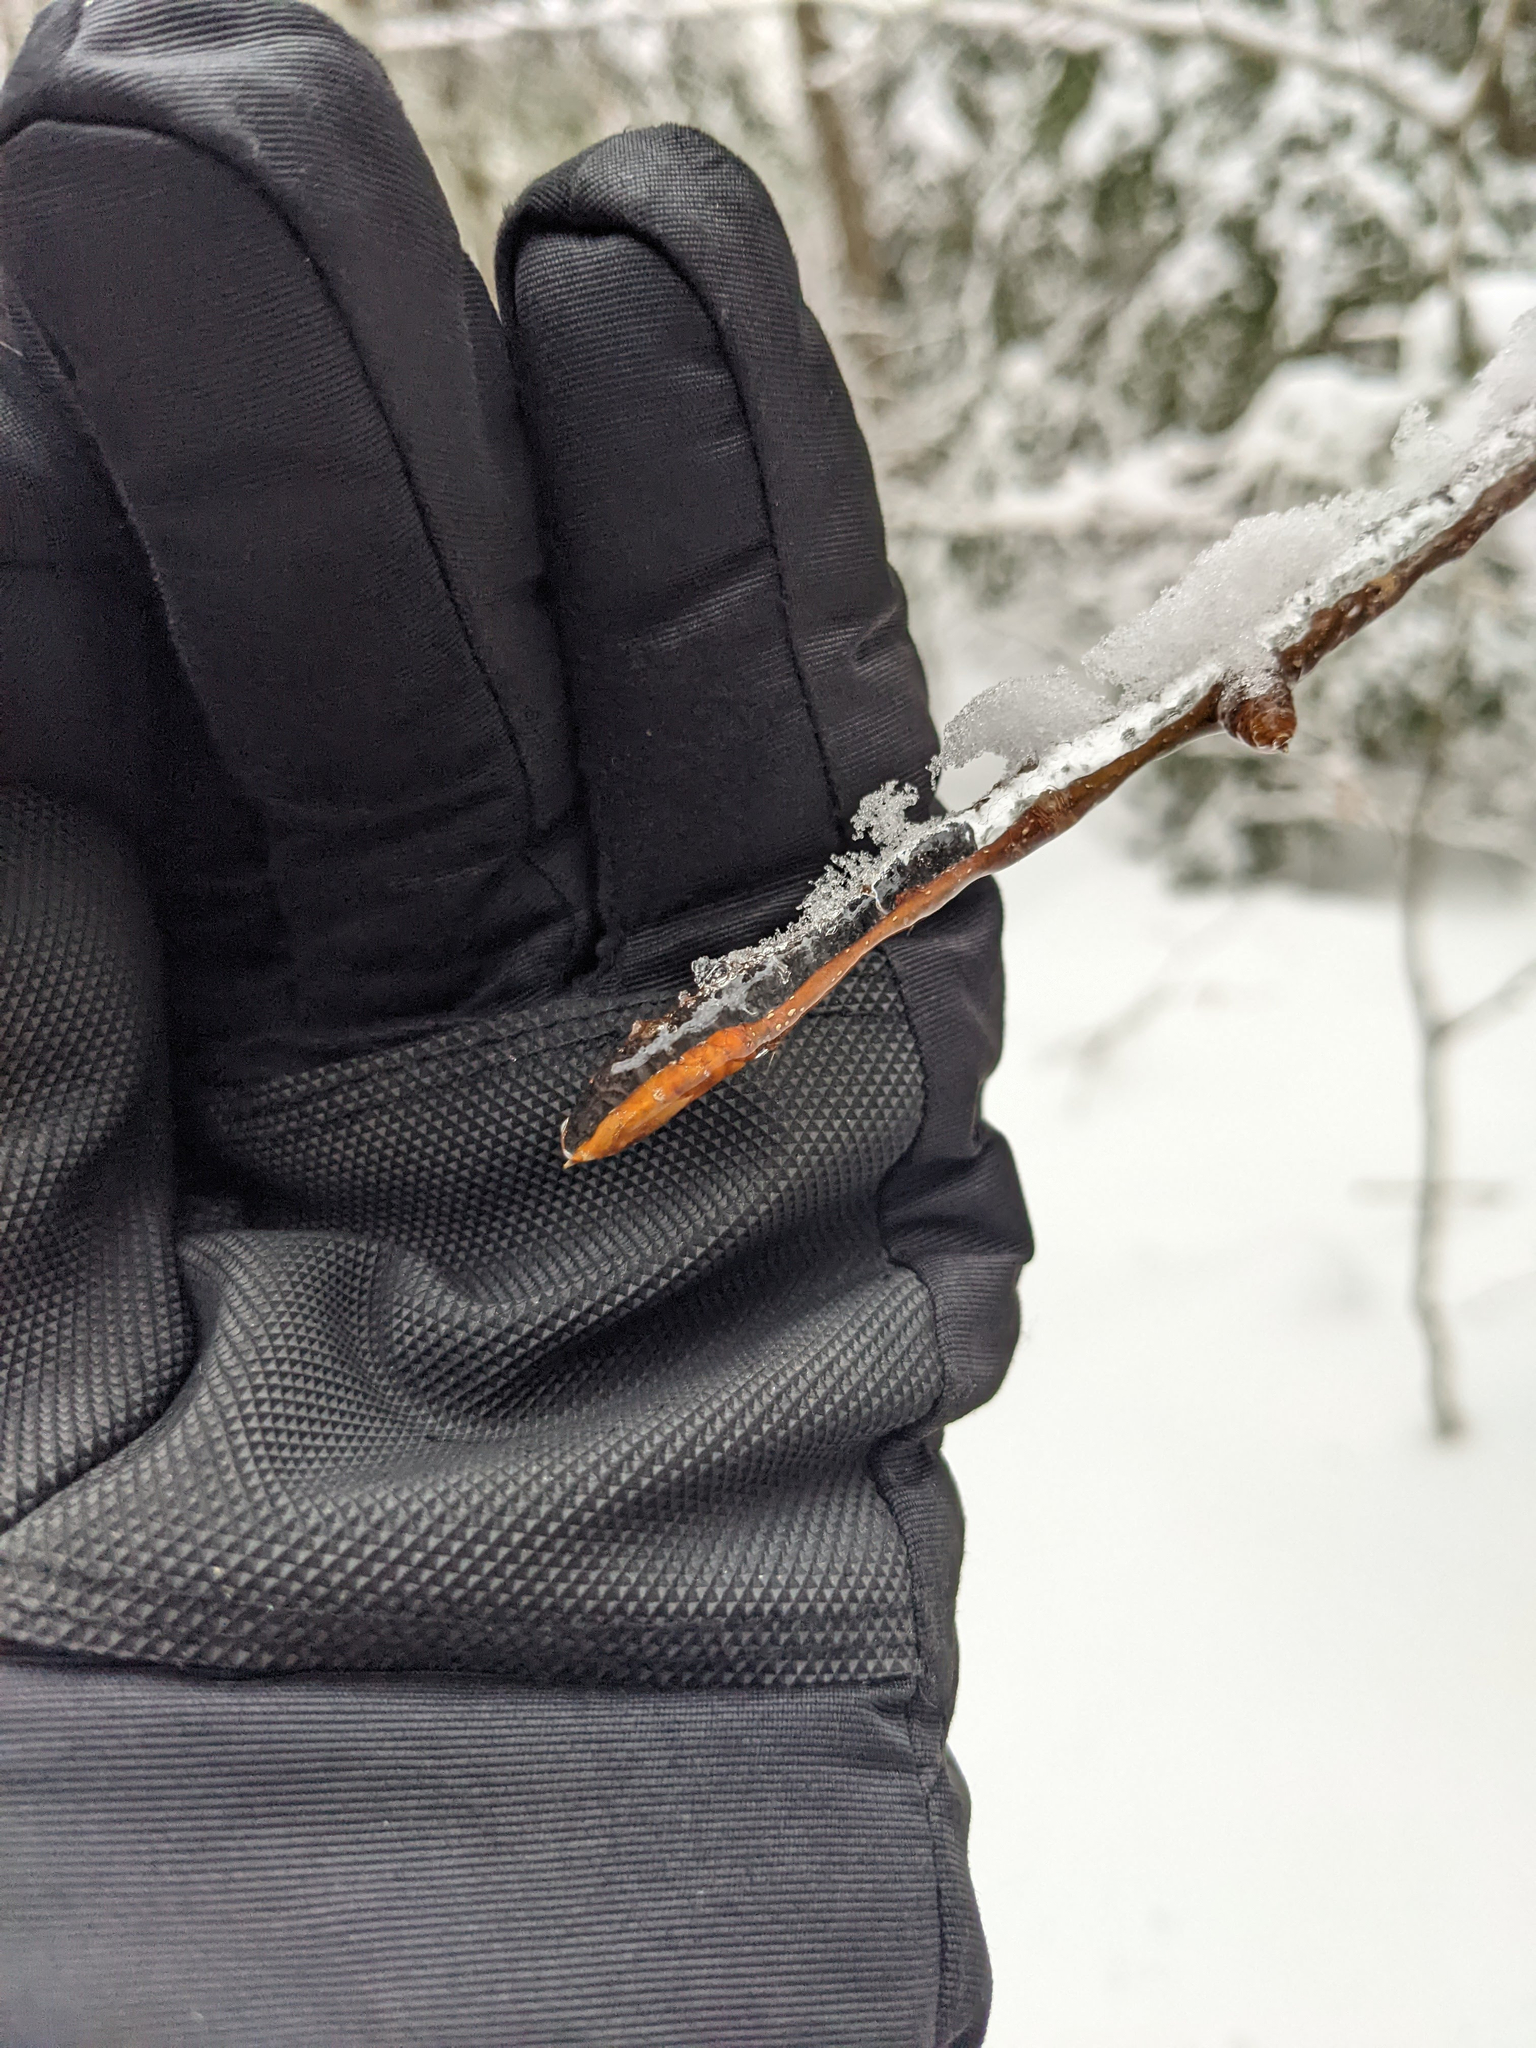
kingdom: Plantae
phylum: Tracheophyta
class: Magnoliopsida
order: Fagales
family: Fagaceae
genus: Fagus
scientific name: Fagus grandifolia
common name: American beech
